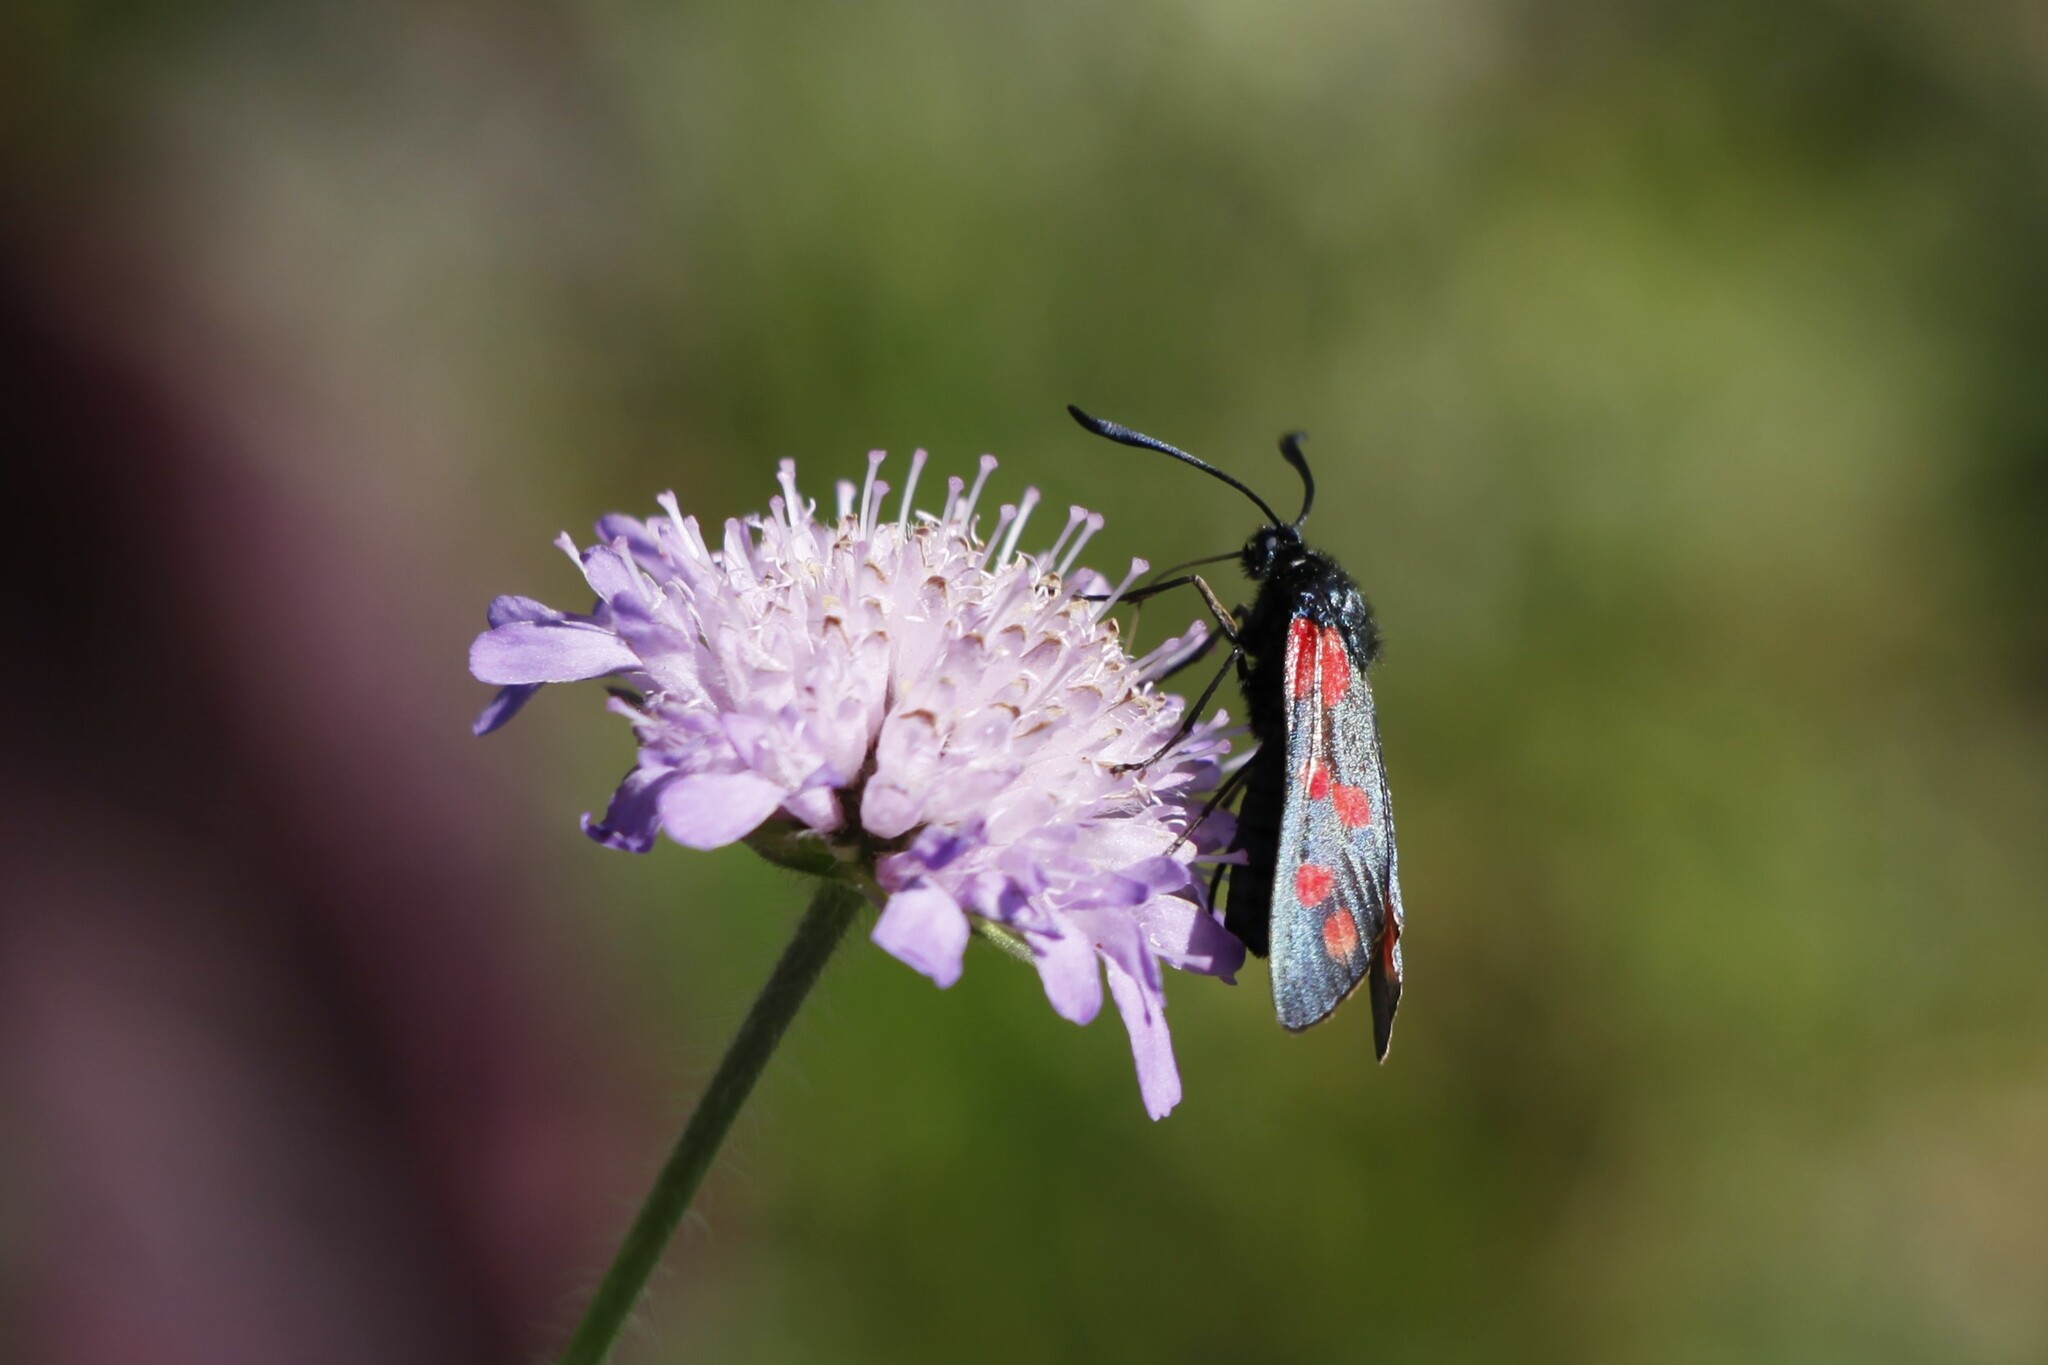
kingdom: Animalia
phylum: Arthropoda
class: Insecta
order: Lepidoptera
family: Zygaenidae
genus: Zygaena
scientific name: Zygaena filipendulae
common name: Six-spot burnet
